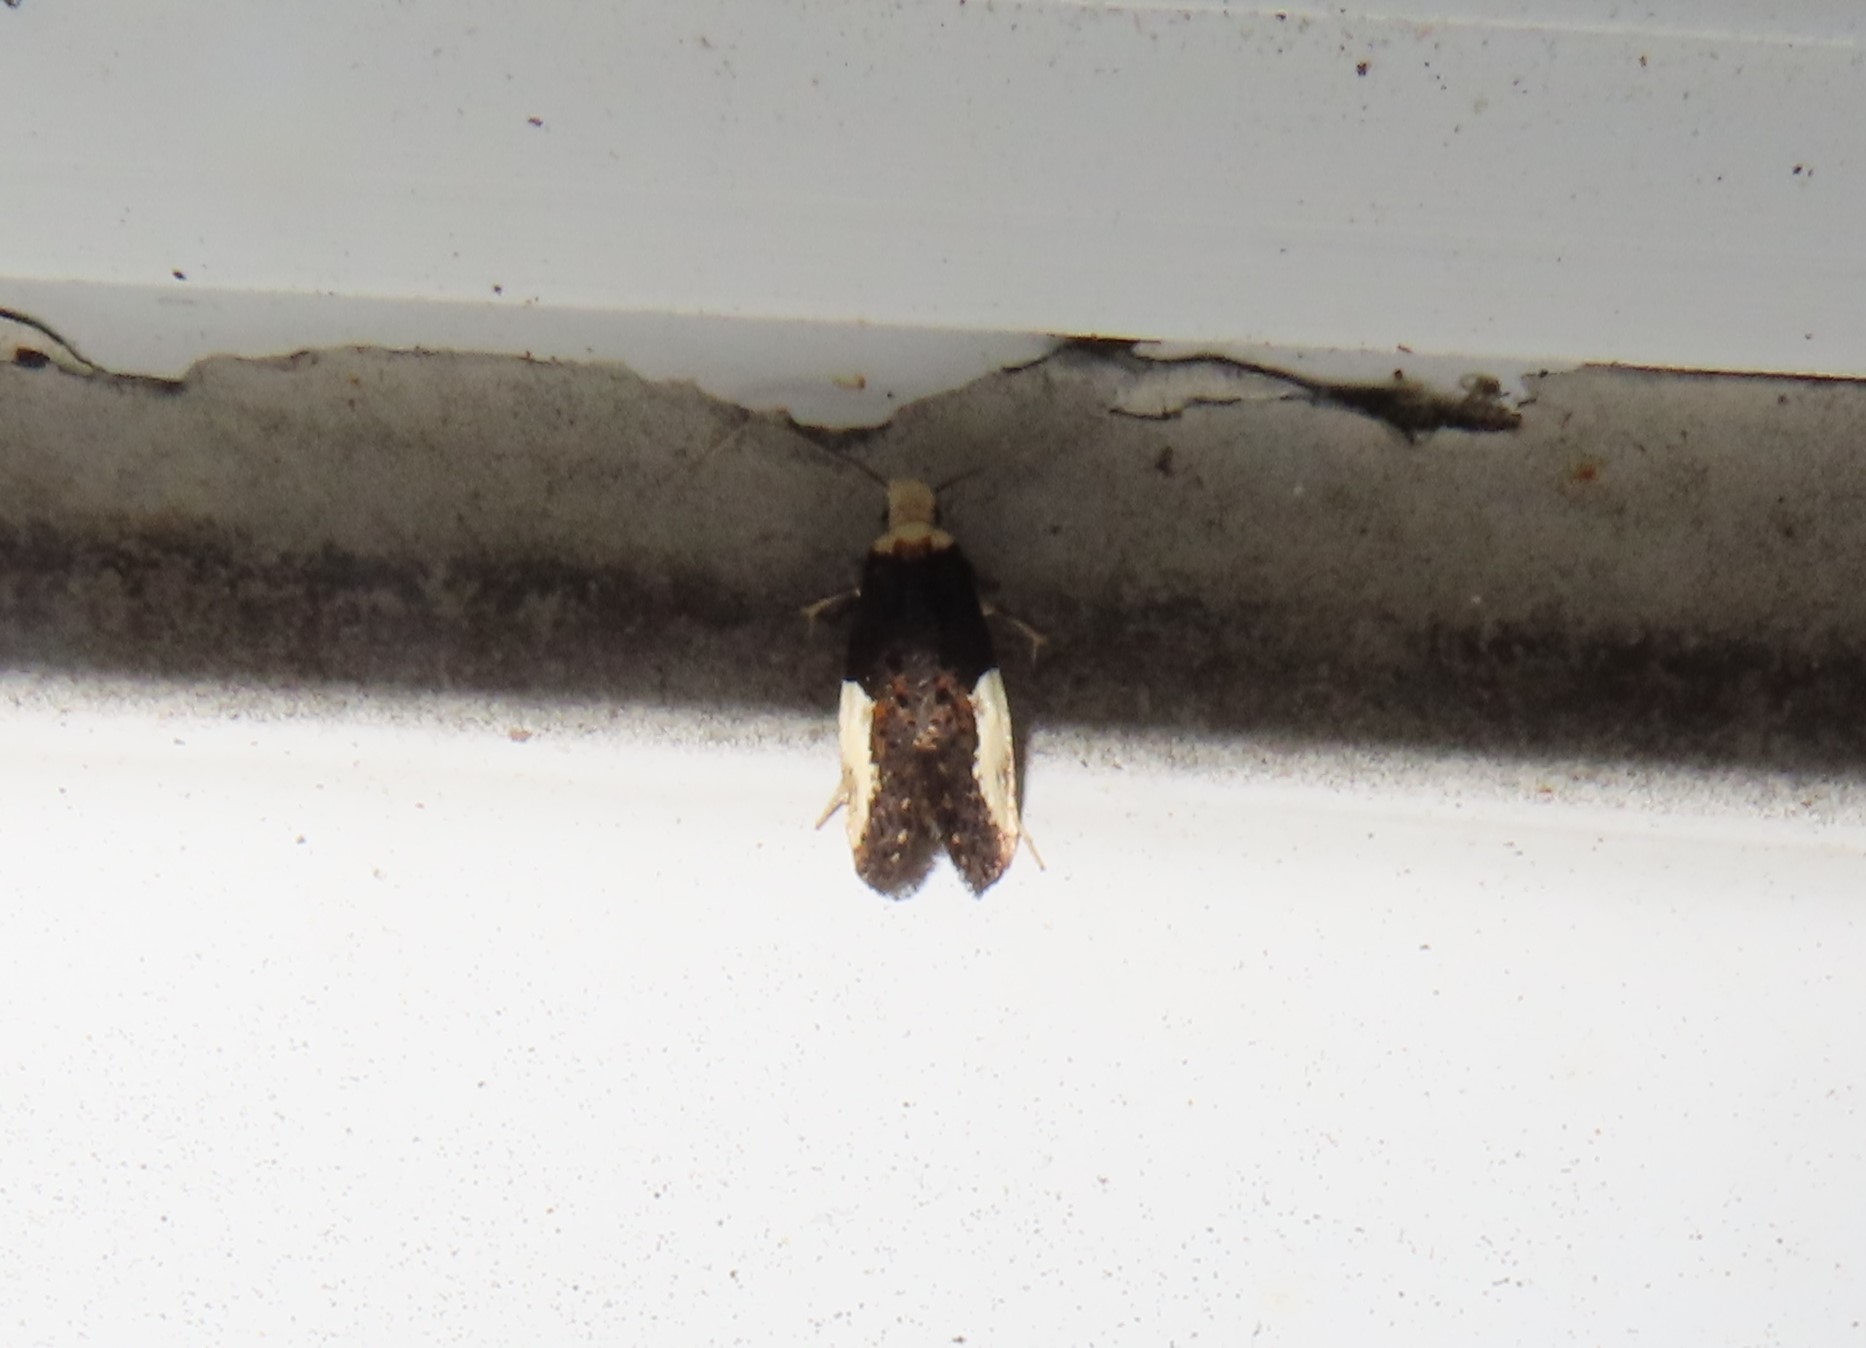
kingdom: Animalia
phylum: Arthropoda
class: Insecta
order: Lepidoptera
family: Tineidae
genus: Monopis
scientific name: Monopis longella
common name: Pavlovski's monopis moth
